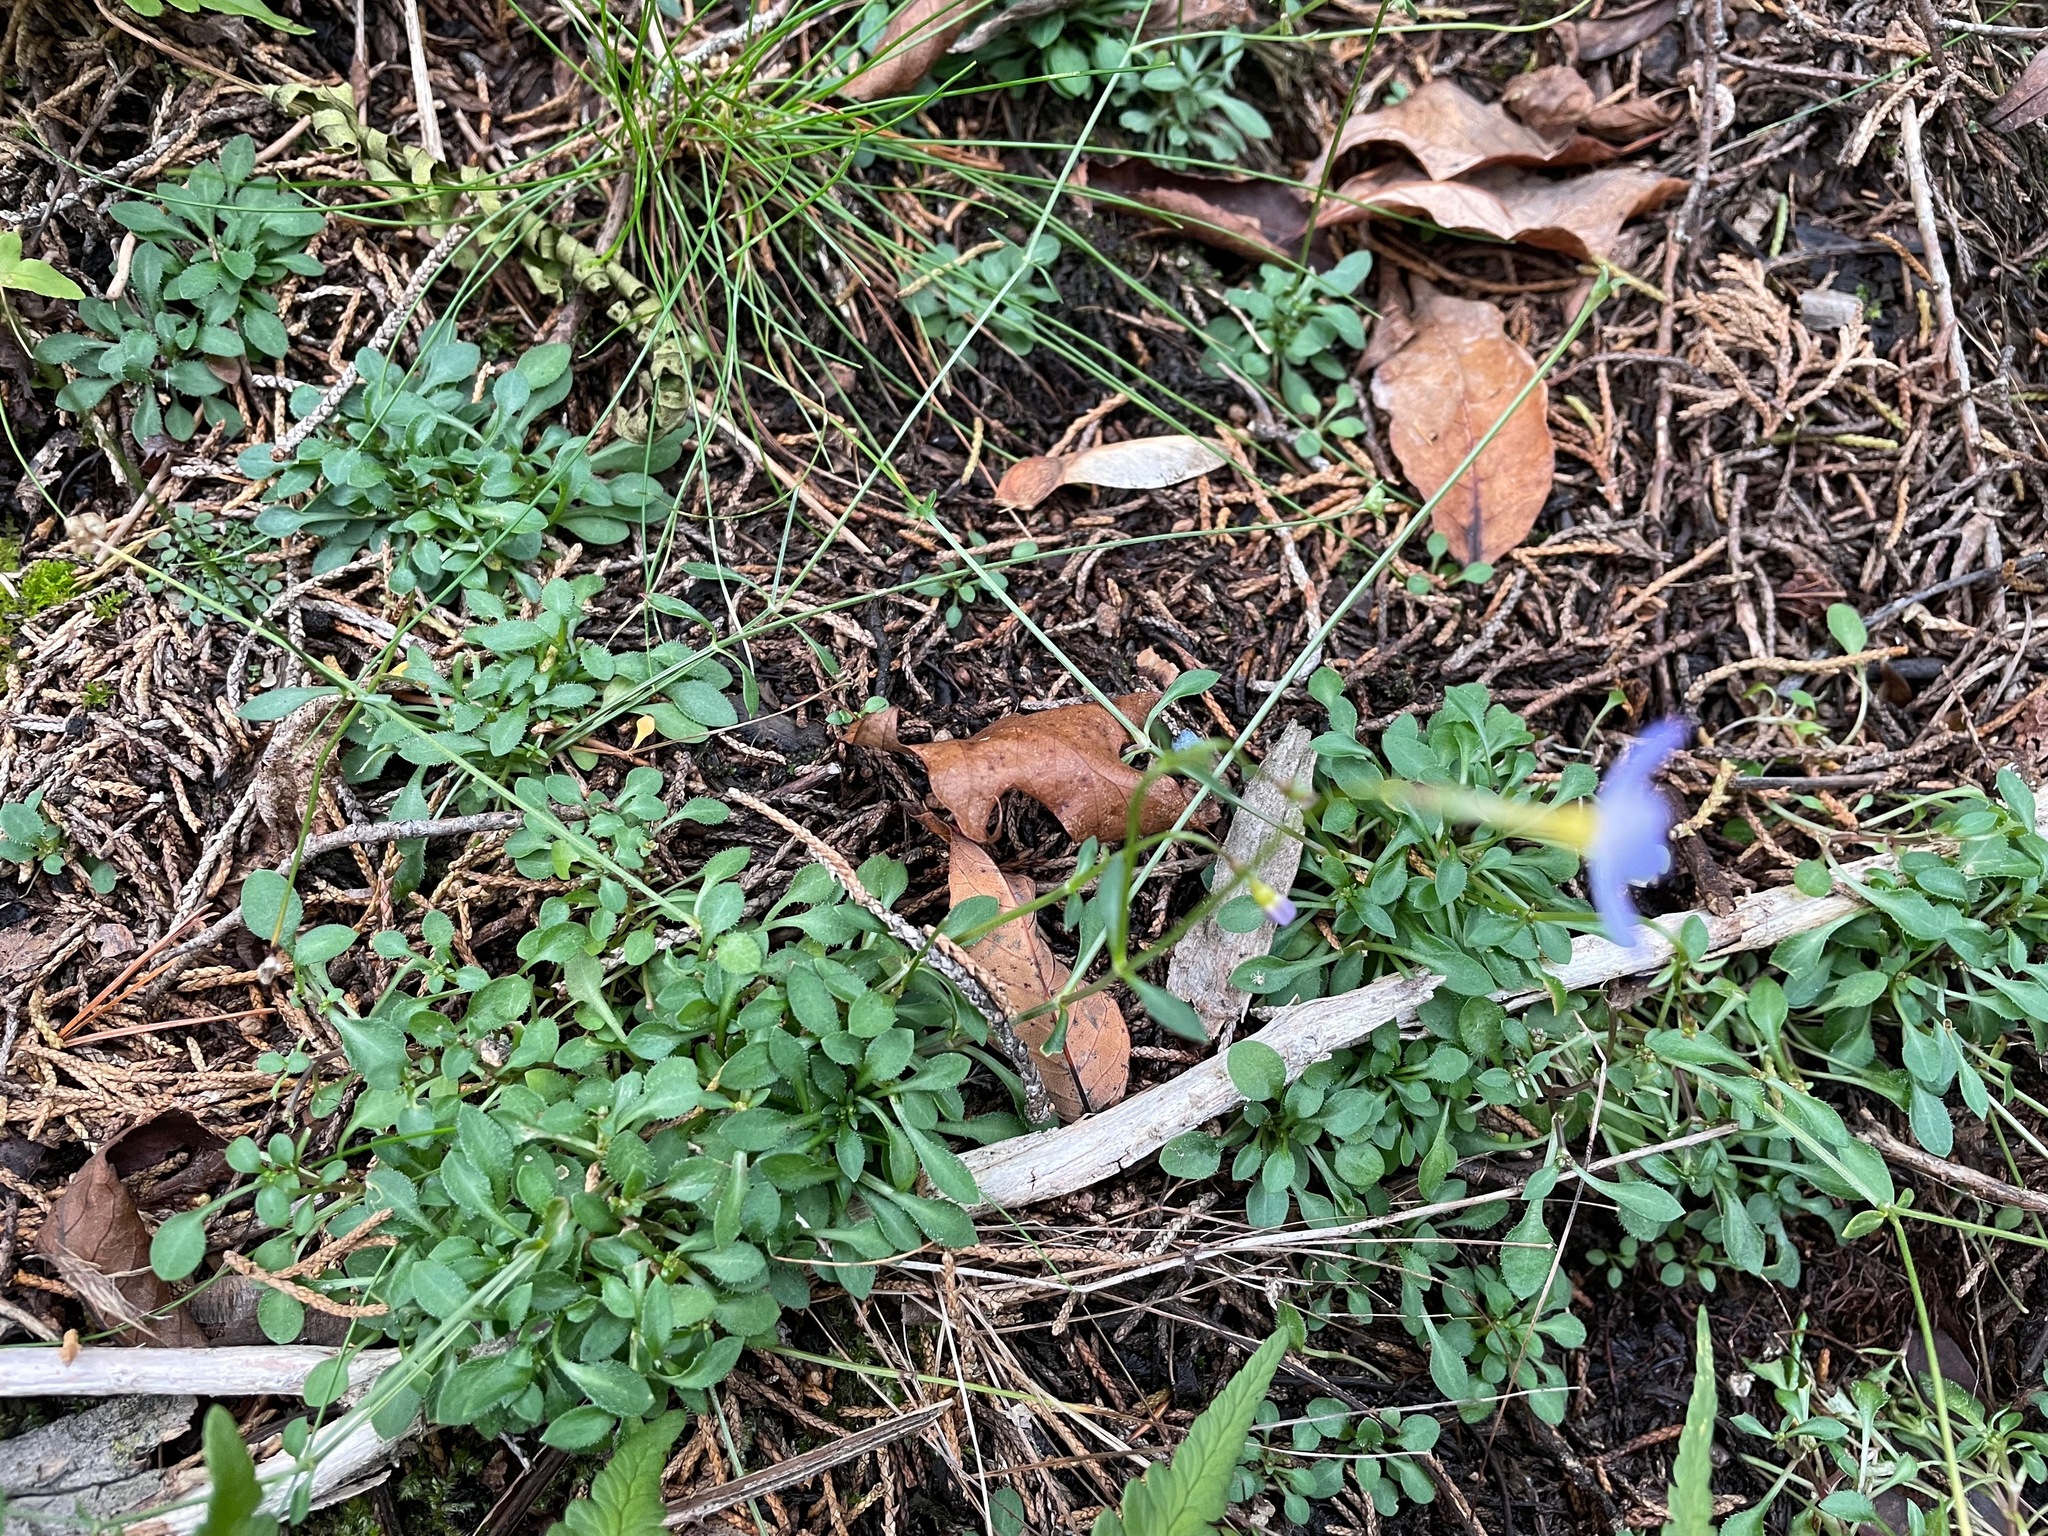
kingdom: Plantae
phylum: Tracheophyta
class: Magnoliopsida
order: Gentianales
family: Rubiaceae
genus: Houstonia
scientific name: Houstonia caerulea
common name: Bluets
